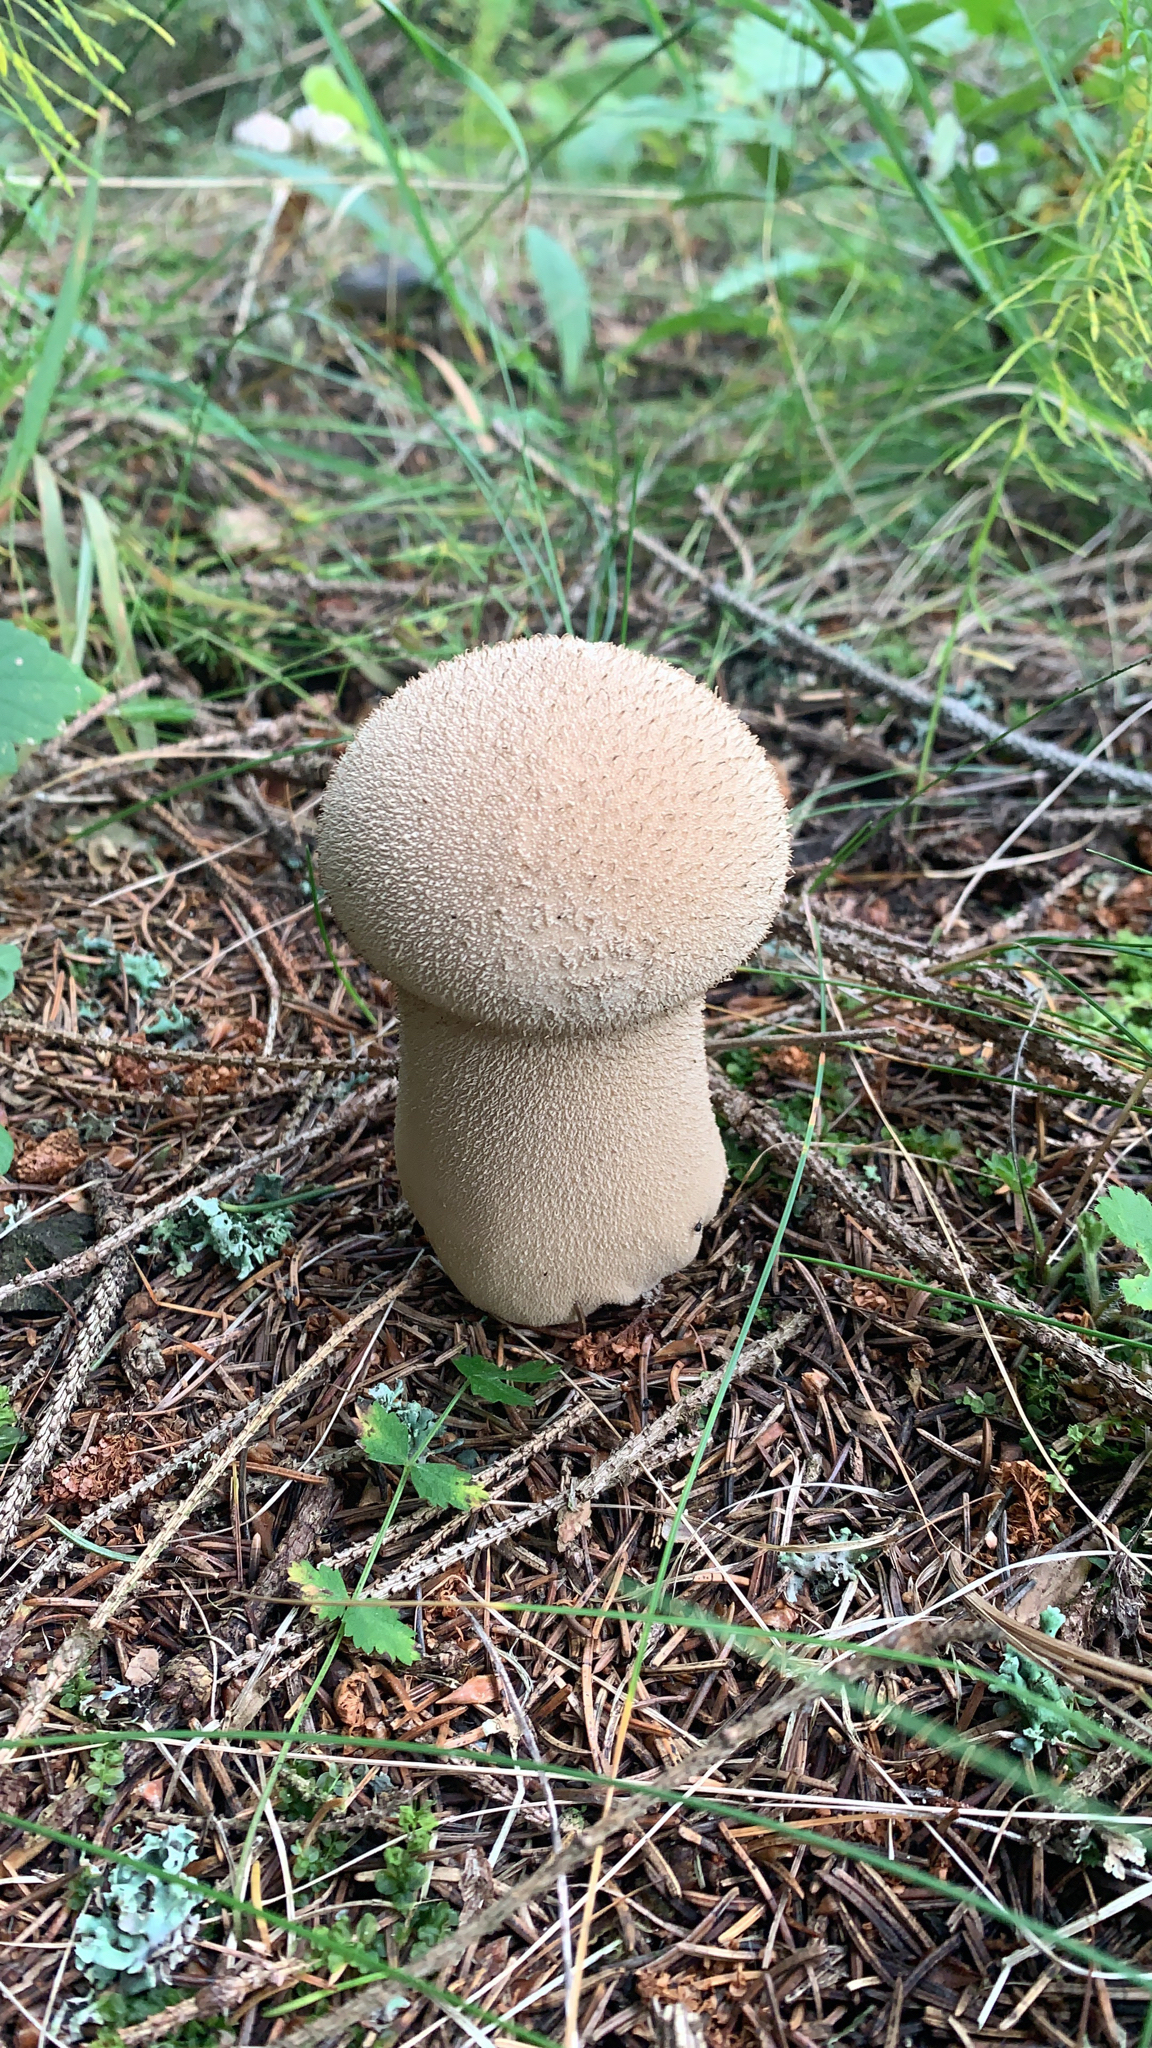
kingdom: Fungi
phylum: Basidiomycota
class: Agaricomycetes
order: Agaricales
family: Lycoperdaceae
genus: Lycoperdon
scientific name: Lycoperdon excipuliforme
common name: Pestle puffball
